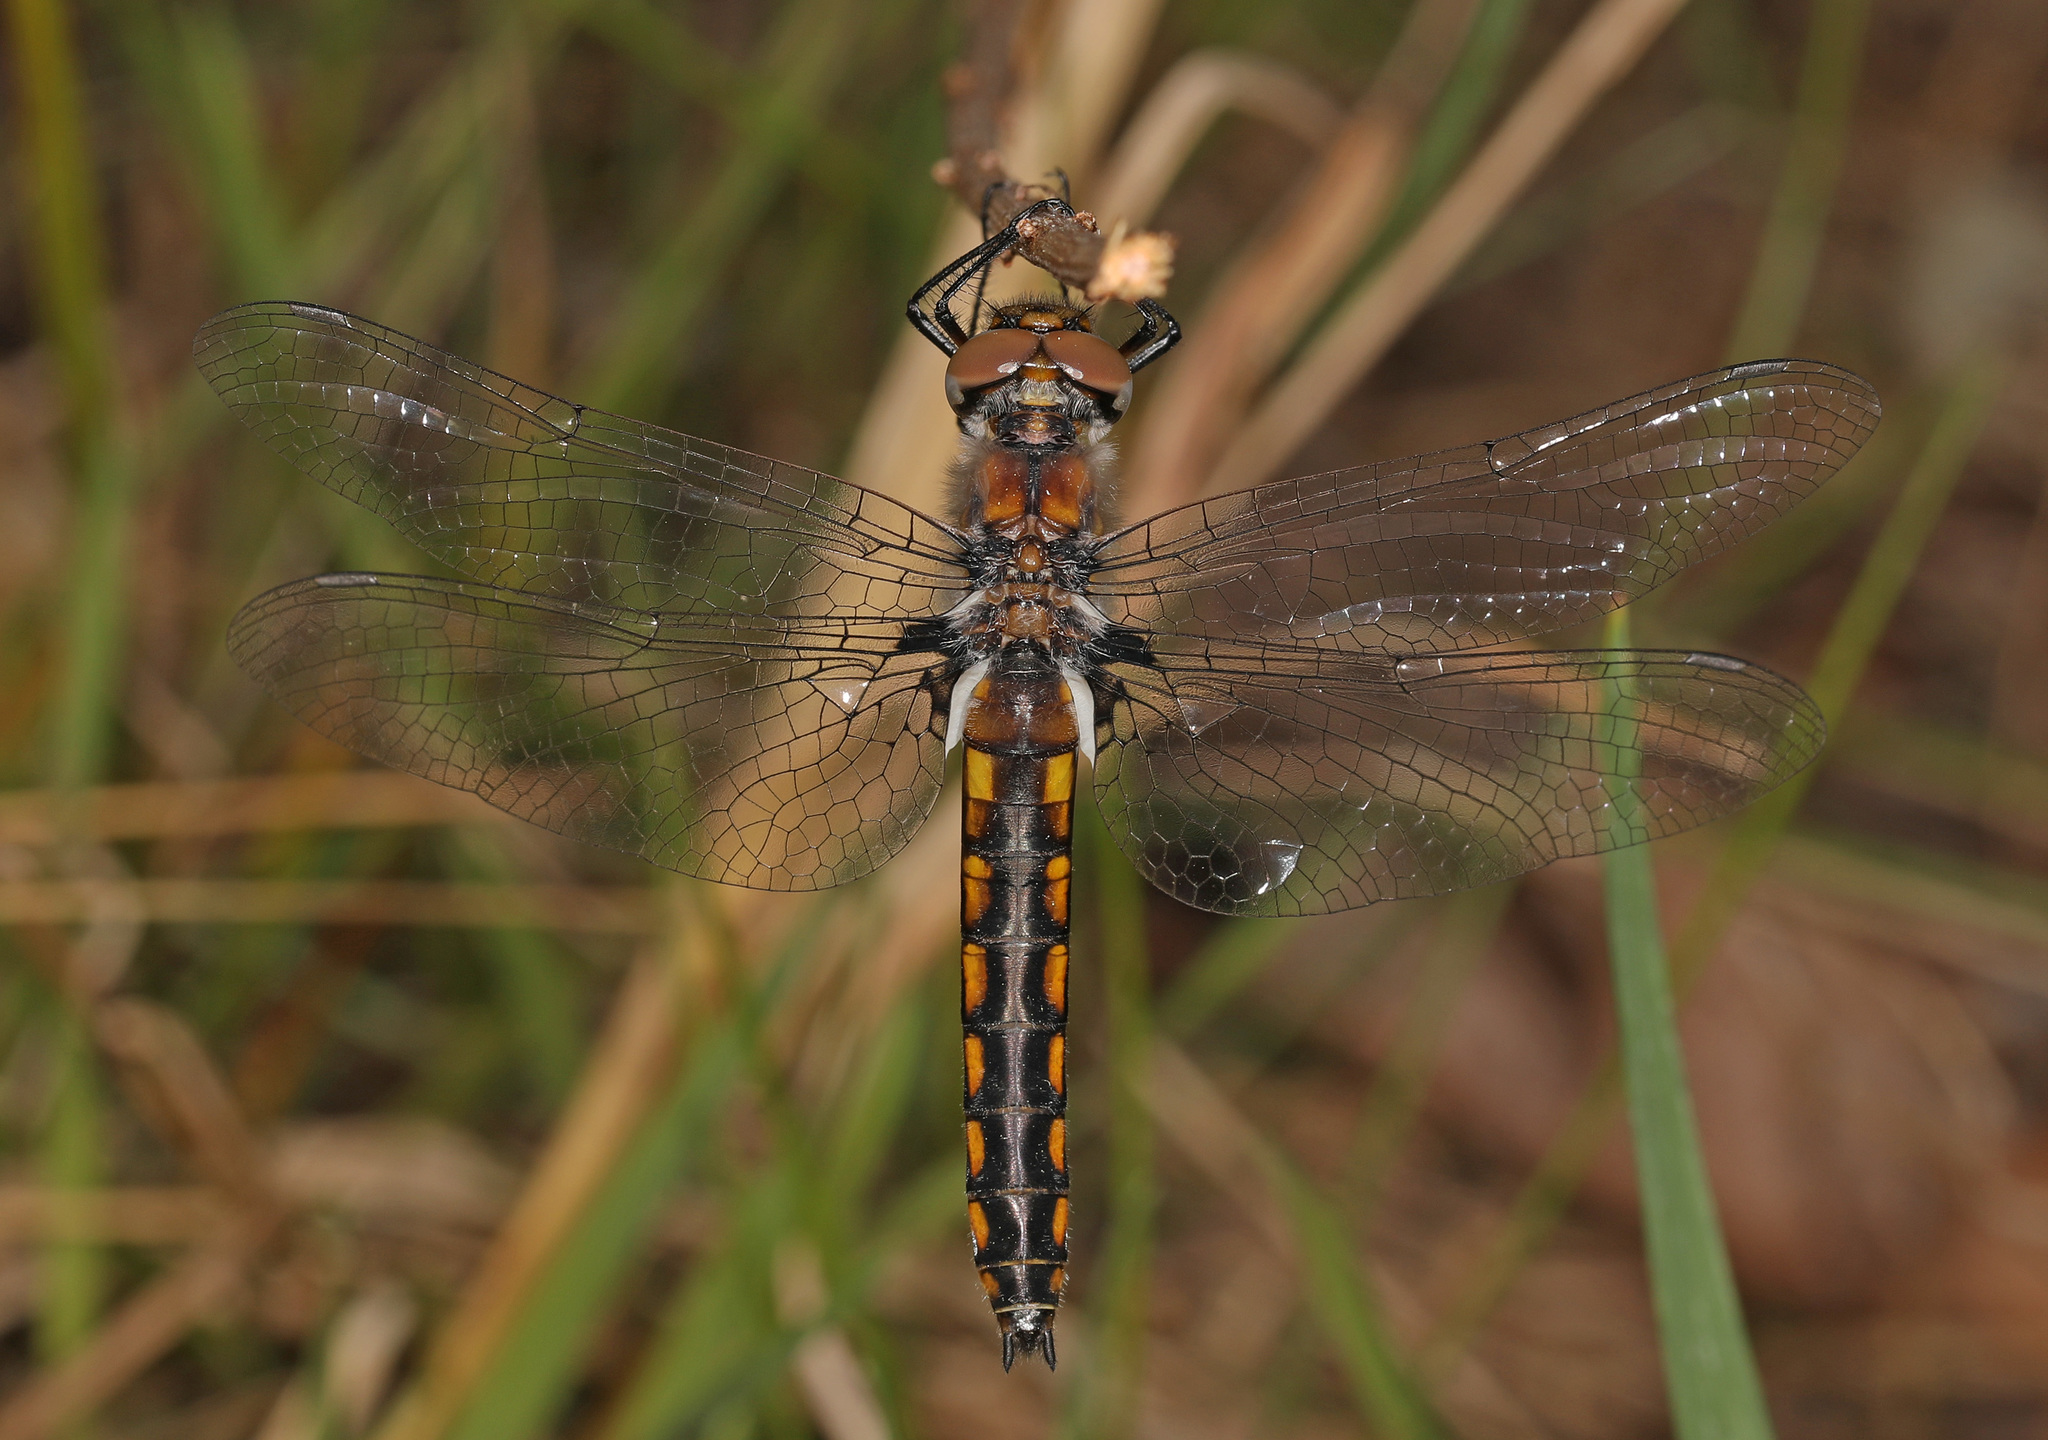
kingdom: Animalia
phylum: Arthropoda
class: Insecta
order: Odonata
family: Corduliidae
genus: Epitheca
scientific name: Epitheca cynosura
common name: Common baskettail
